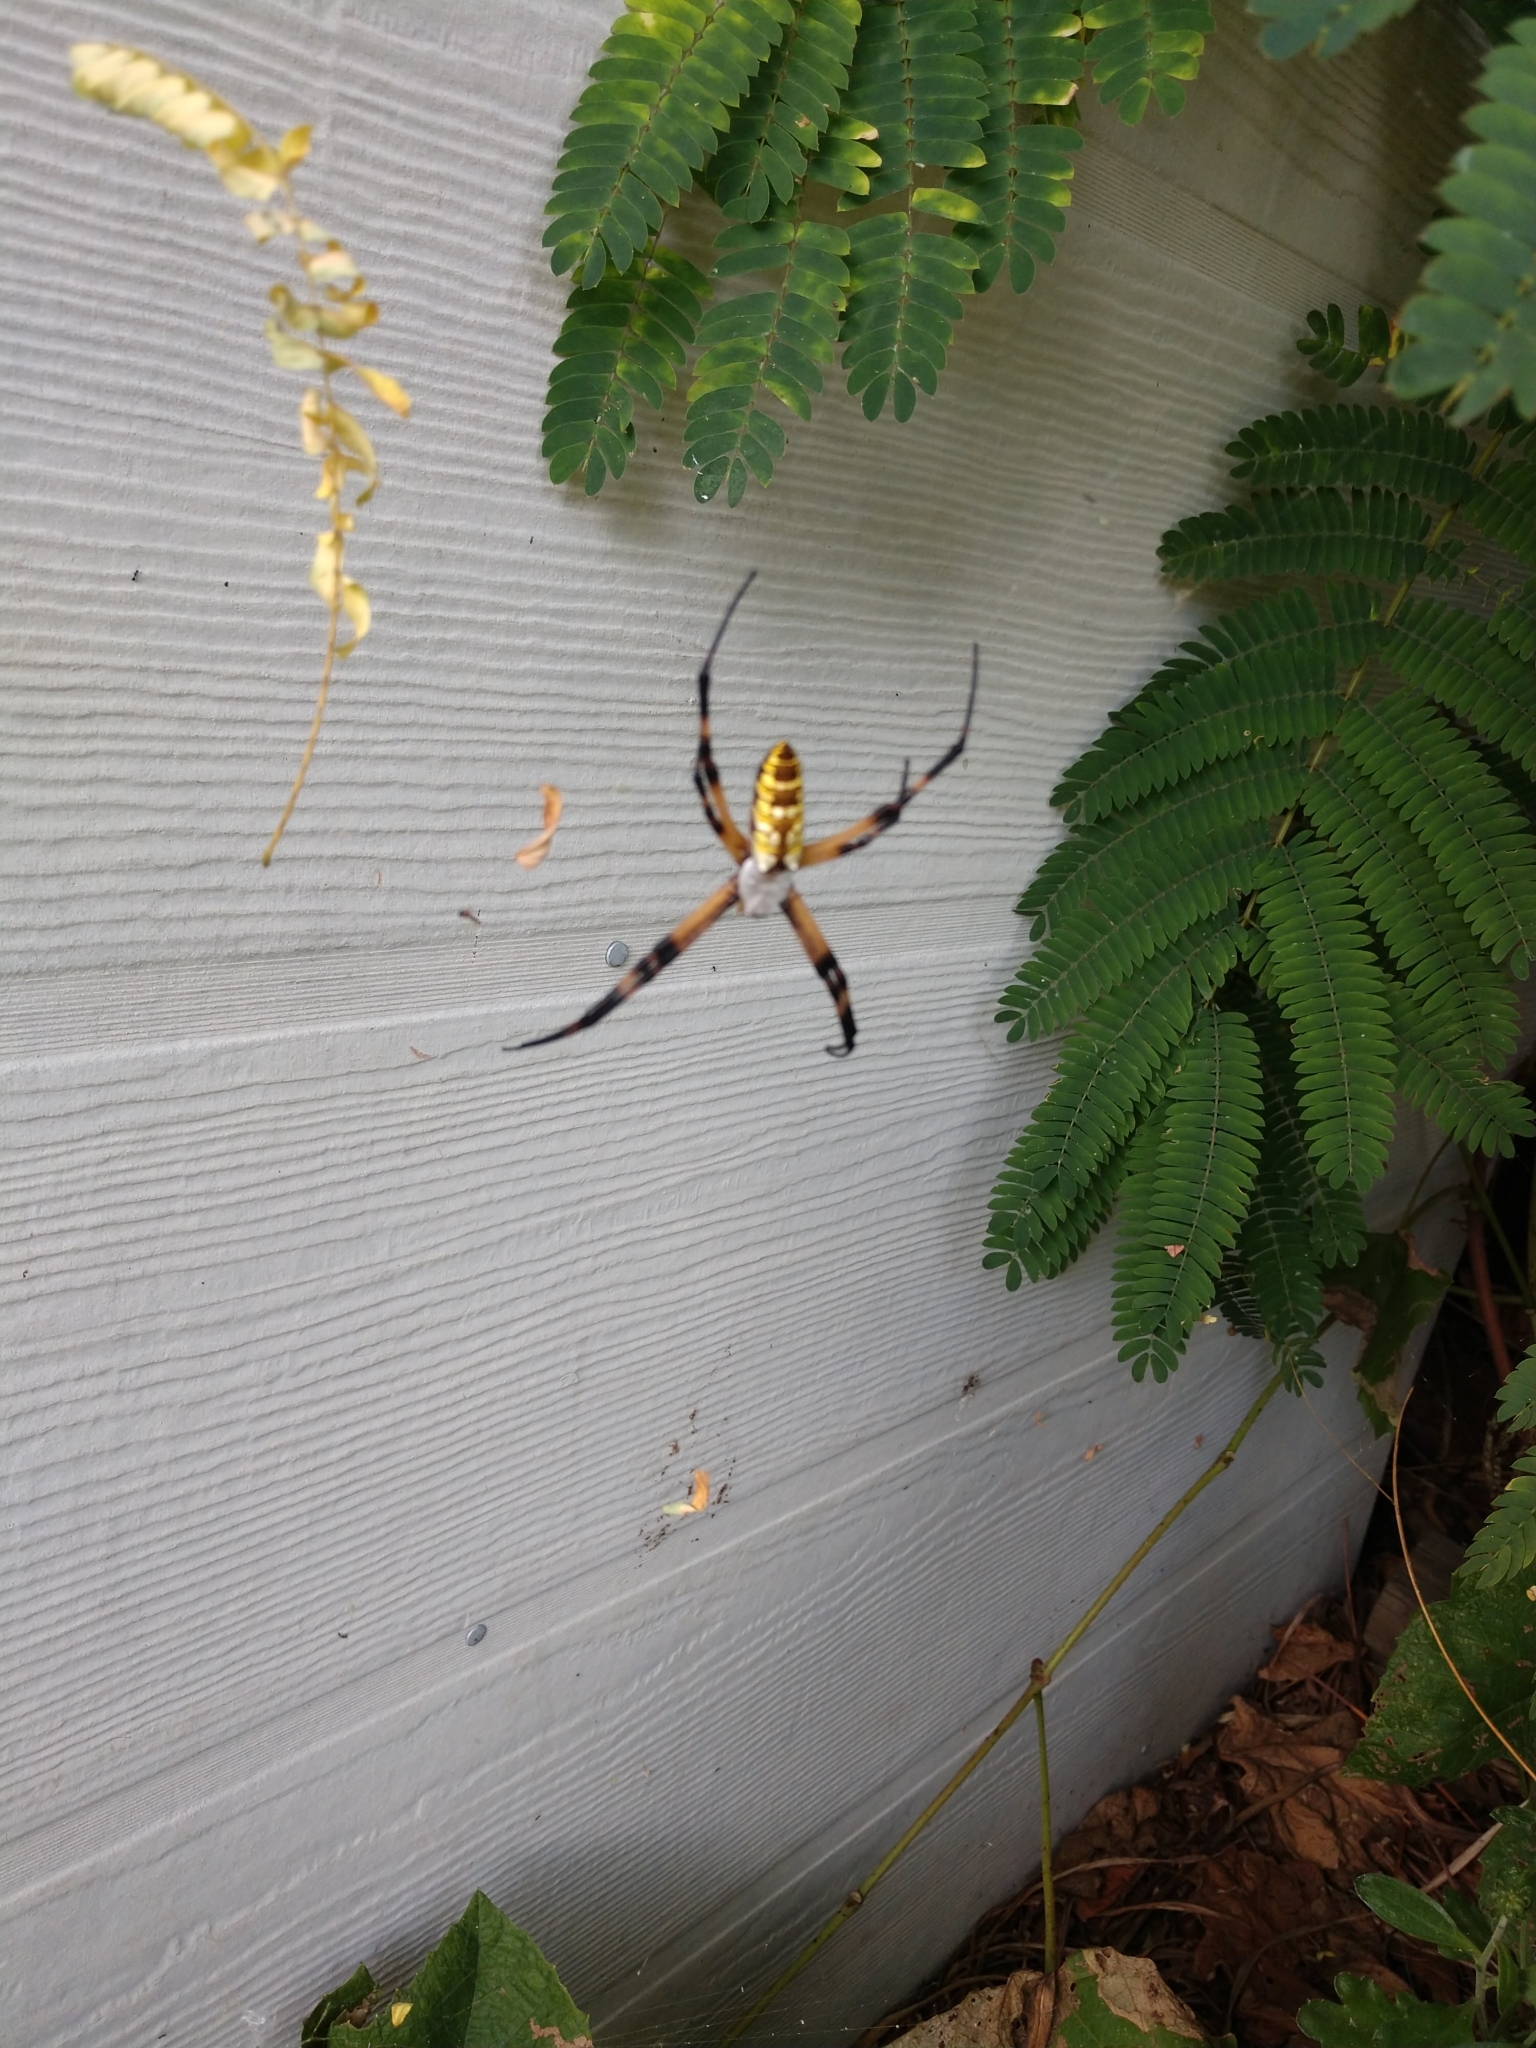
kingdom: Animalia
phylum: Arthropoda
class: Arachnida
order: Araneae
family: Araneidae
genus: Argiope
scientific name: Argiope aurantia
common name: Orb weavers
